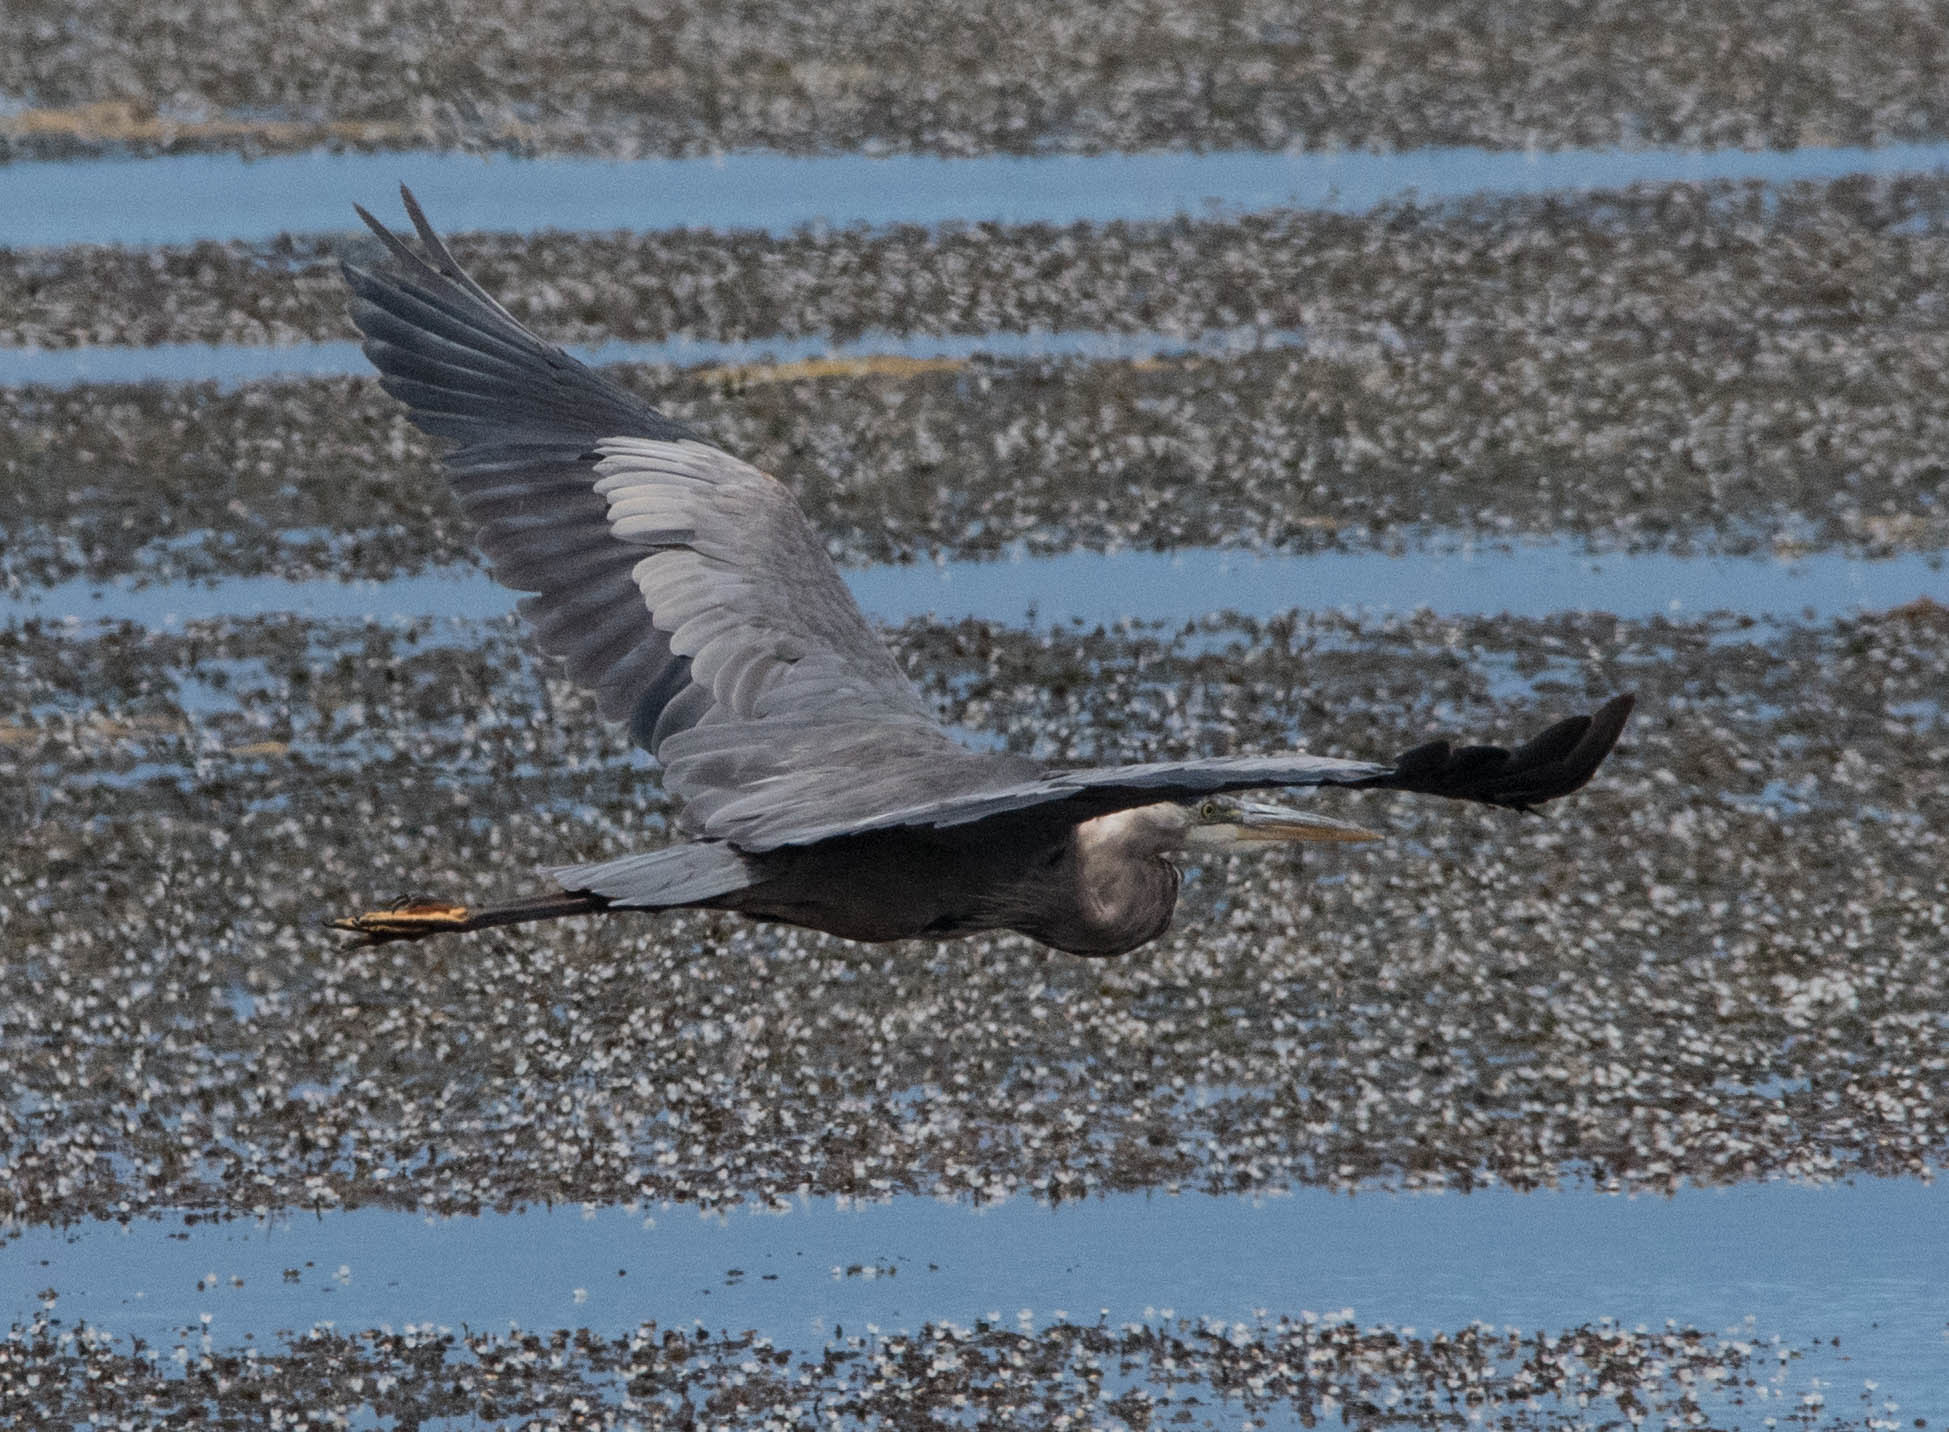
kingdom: Animalia
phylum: Chordata
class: Aves
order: Pelecaniformes
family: Ardeidae
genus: Ardea
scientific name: Ardea herodias
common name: Great blue heron
